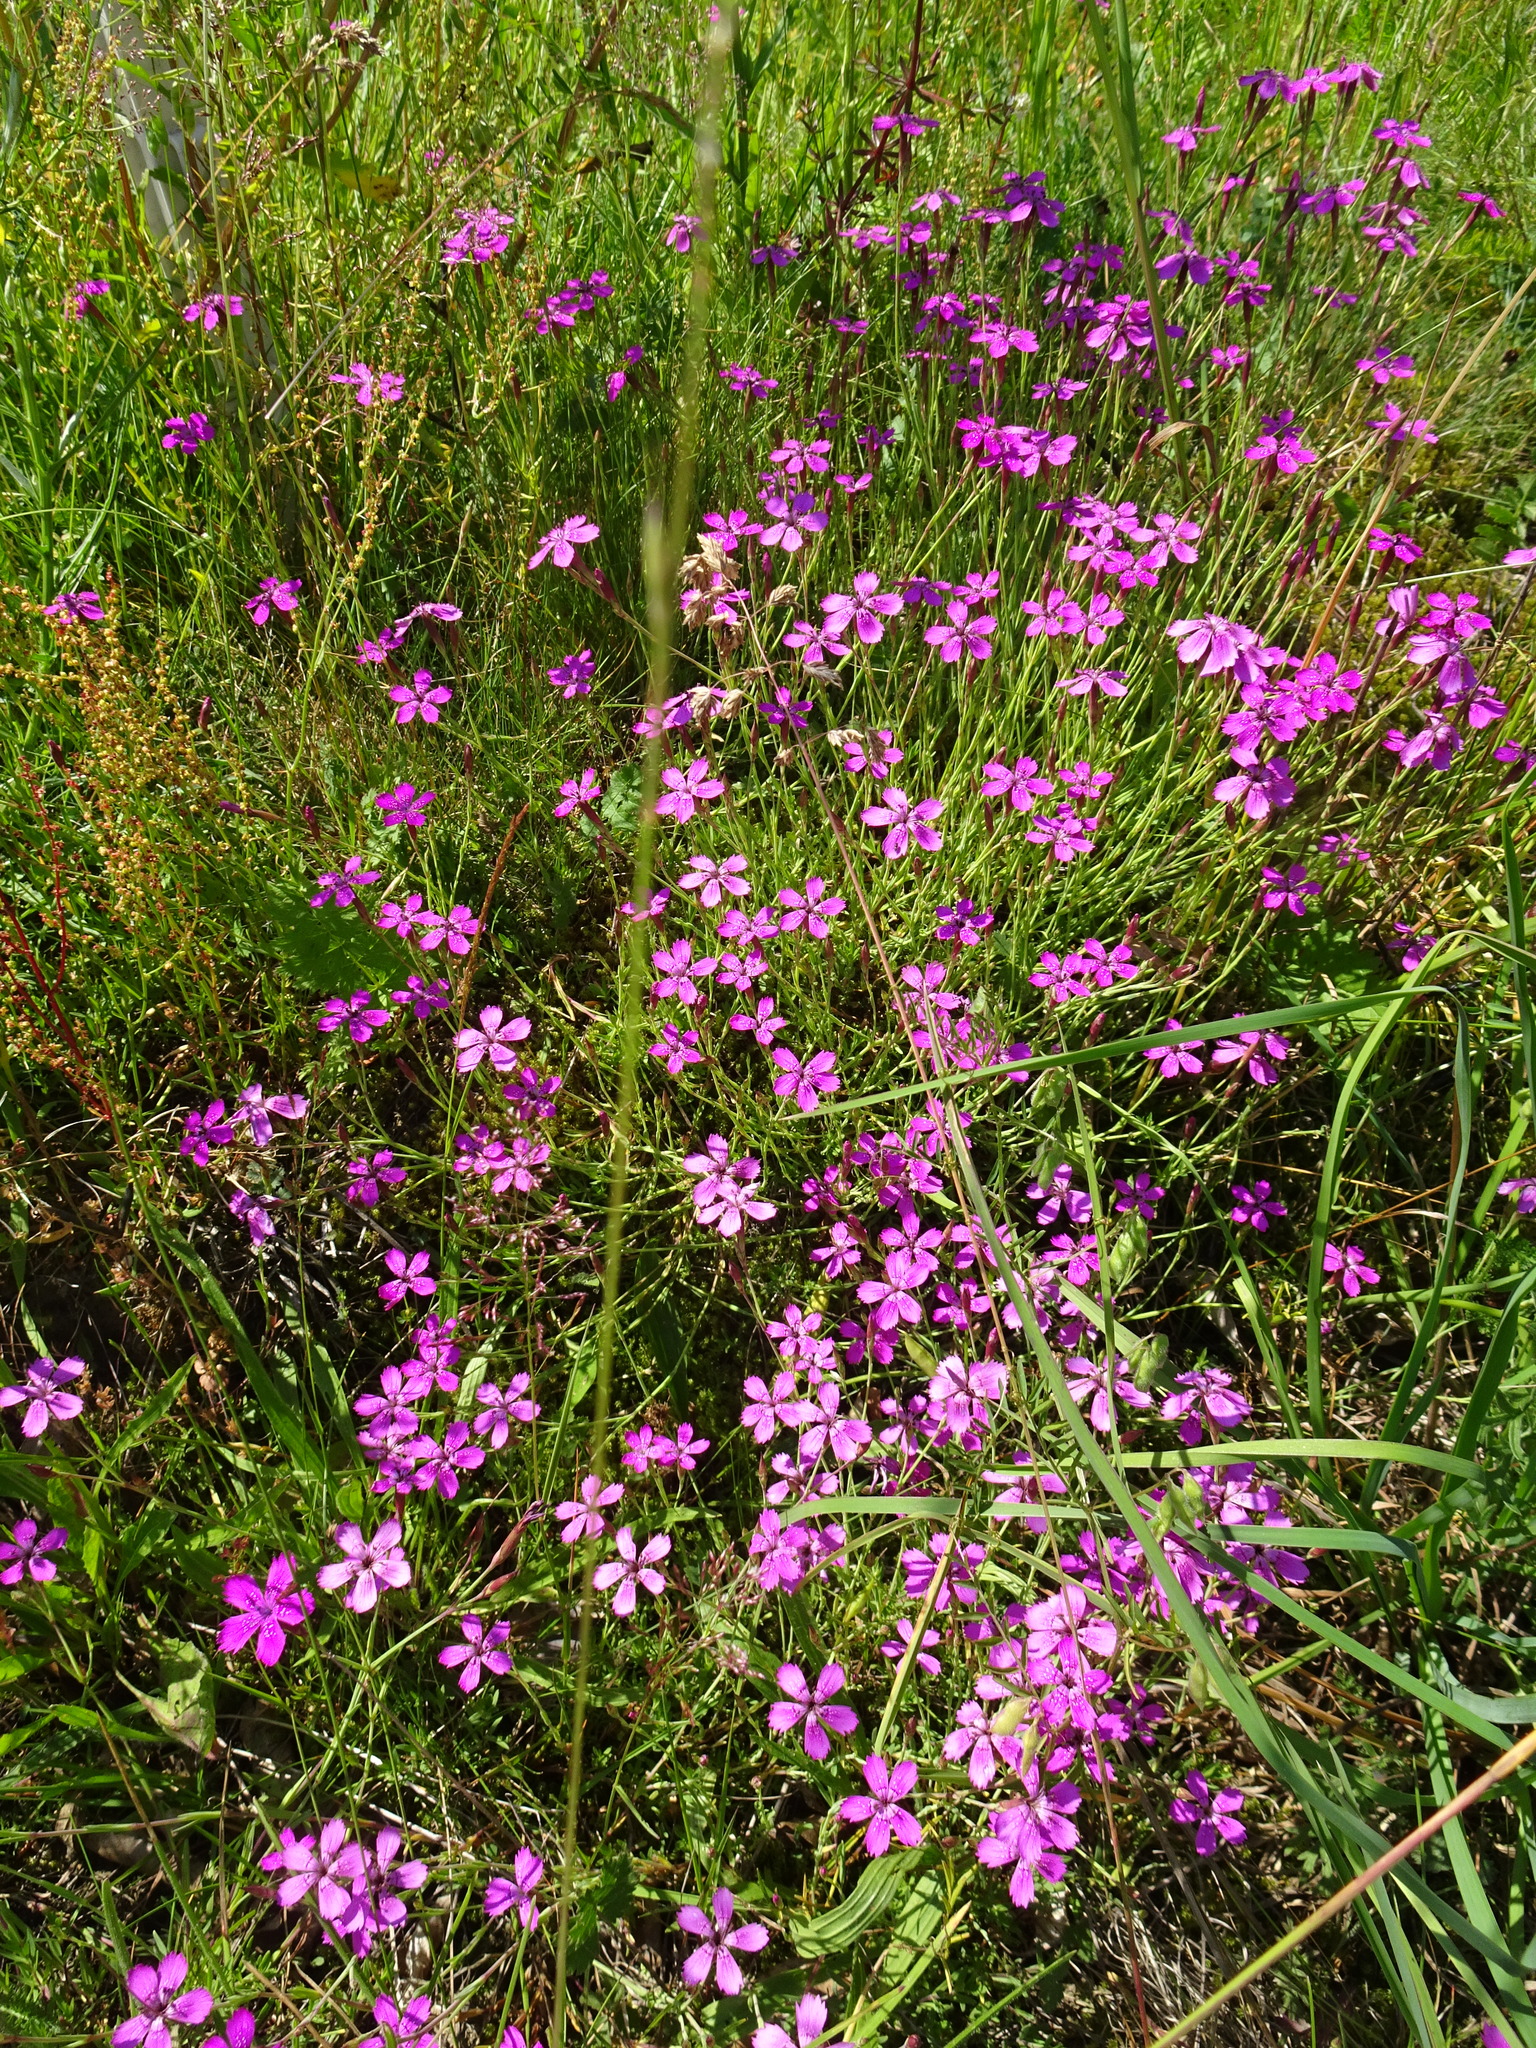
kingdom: Plantae
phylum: Tracheophyta
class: Magnoliopsida
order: Caryophyllales
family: Caryophyllaceae
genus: Dianthus
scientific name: Dianthus deltoides
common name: Maiden pink
